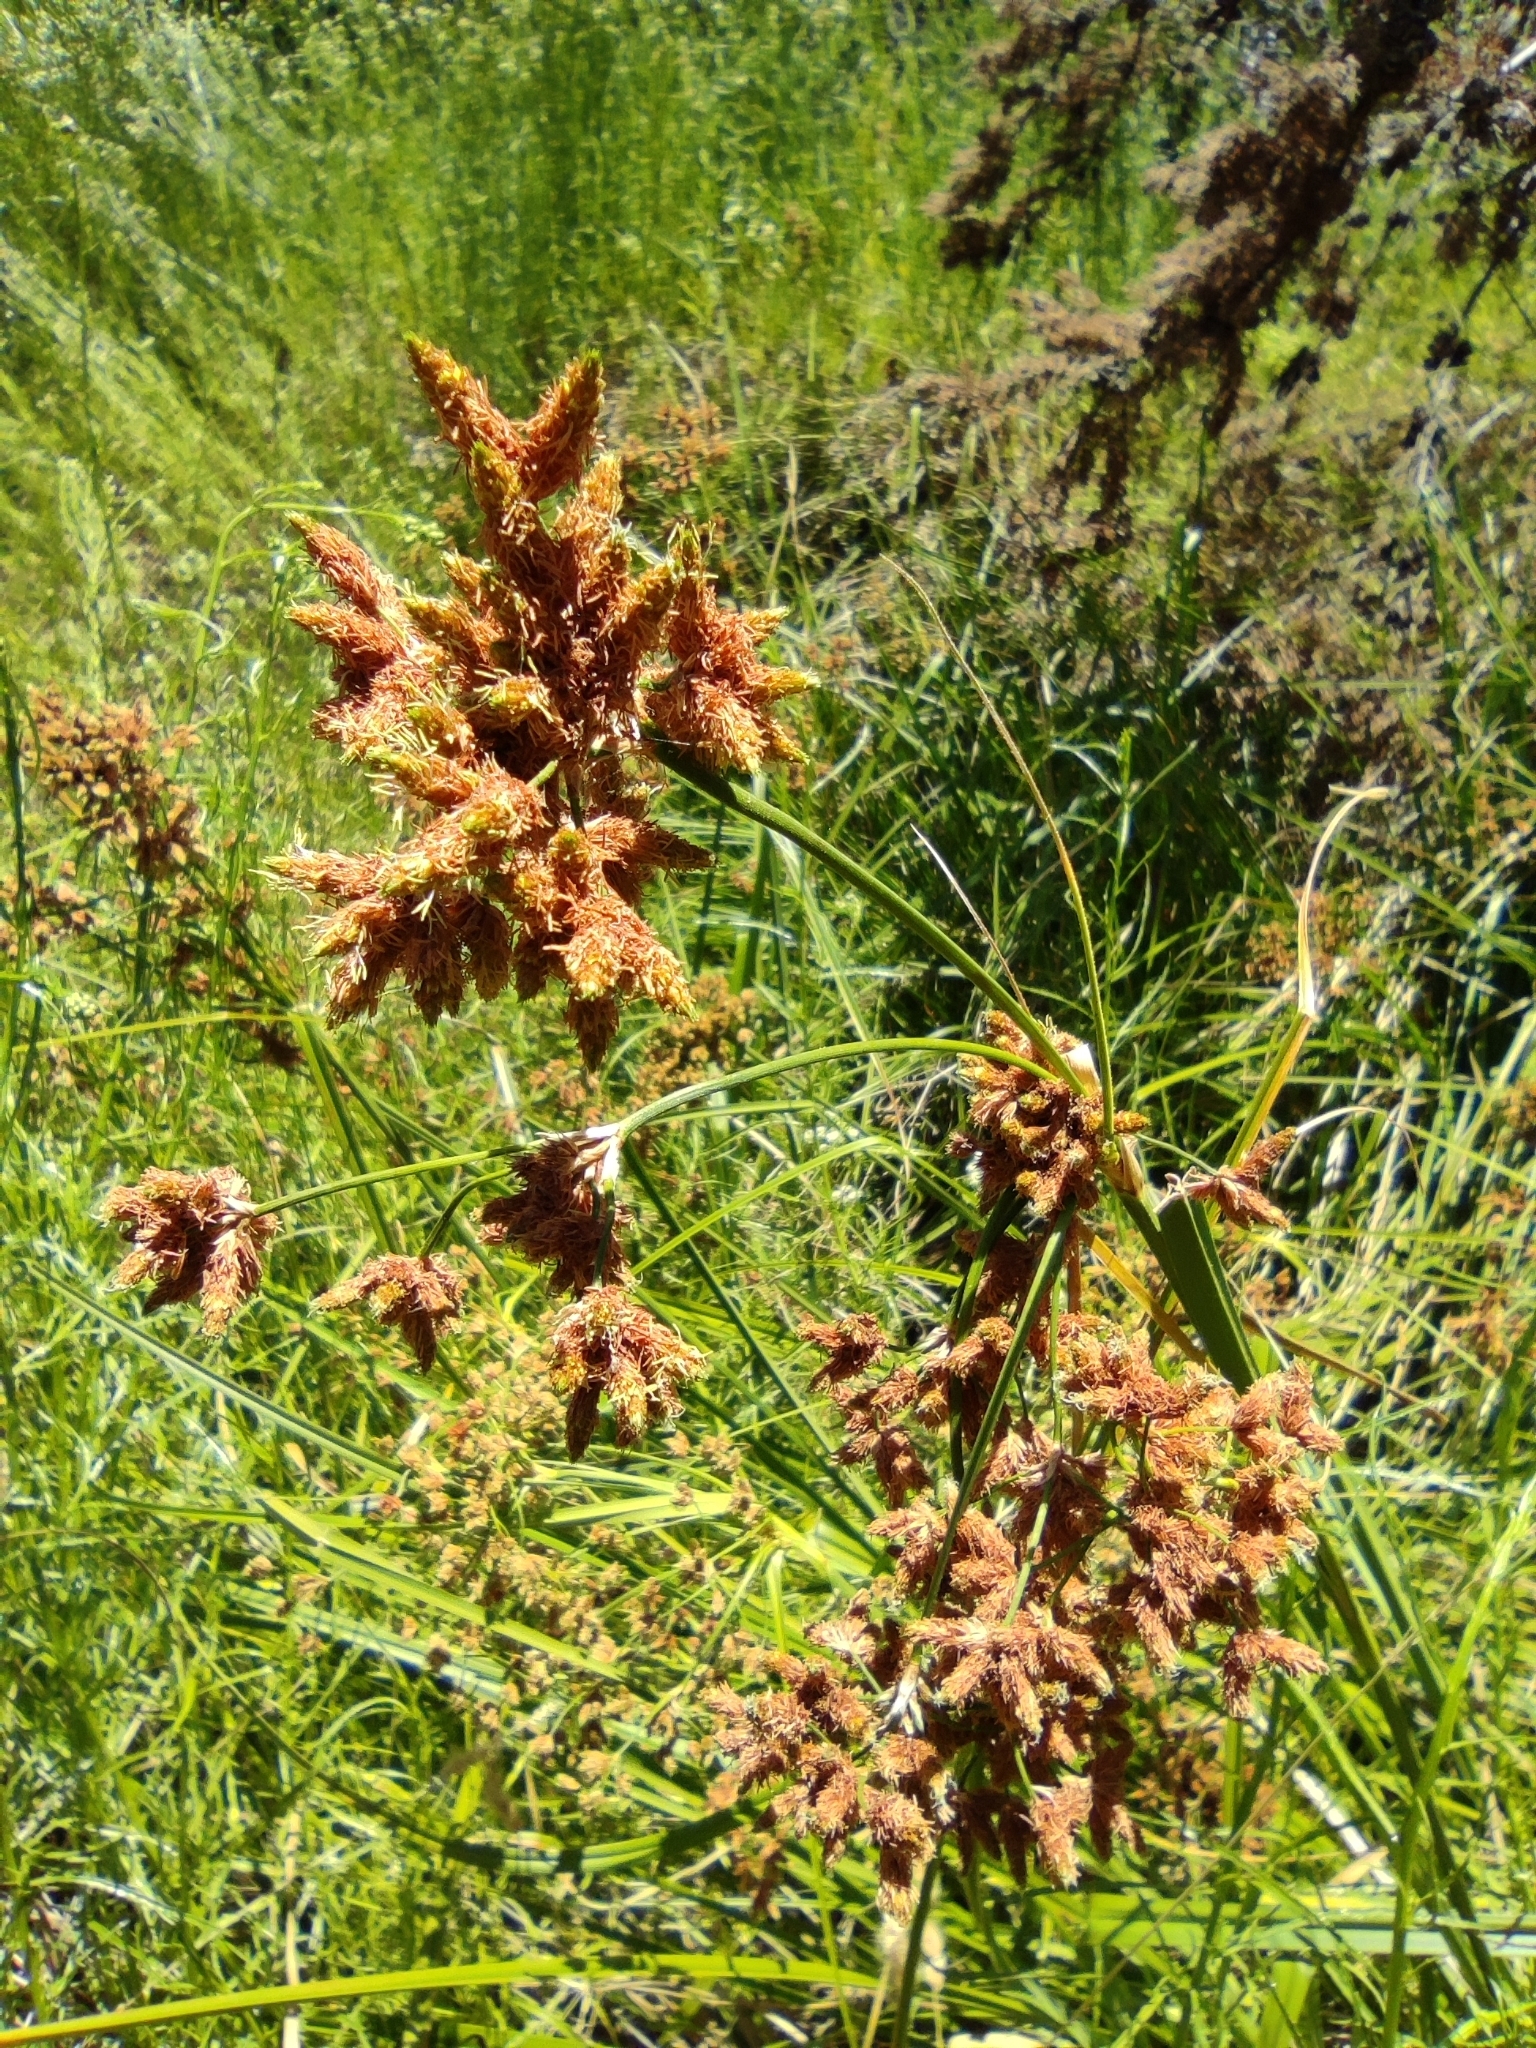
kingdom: Plantae
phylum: Tracheophyta
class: Liliopsida
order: Poales
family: Cyperaceae
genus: Rhodoscirpus
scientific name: Rhodoscirpus asper
